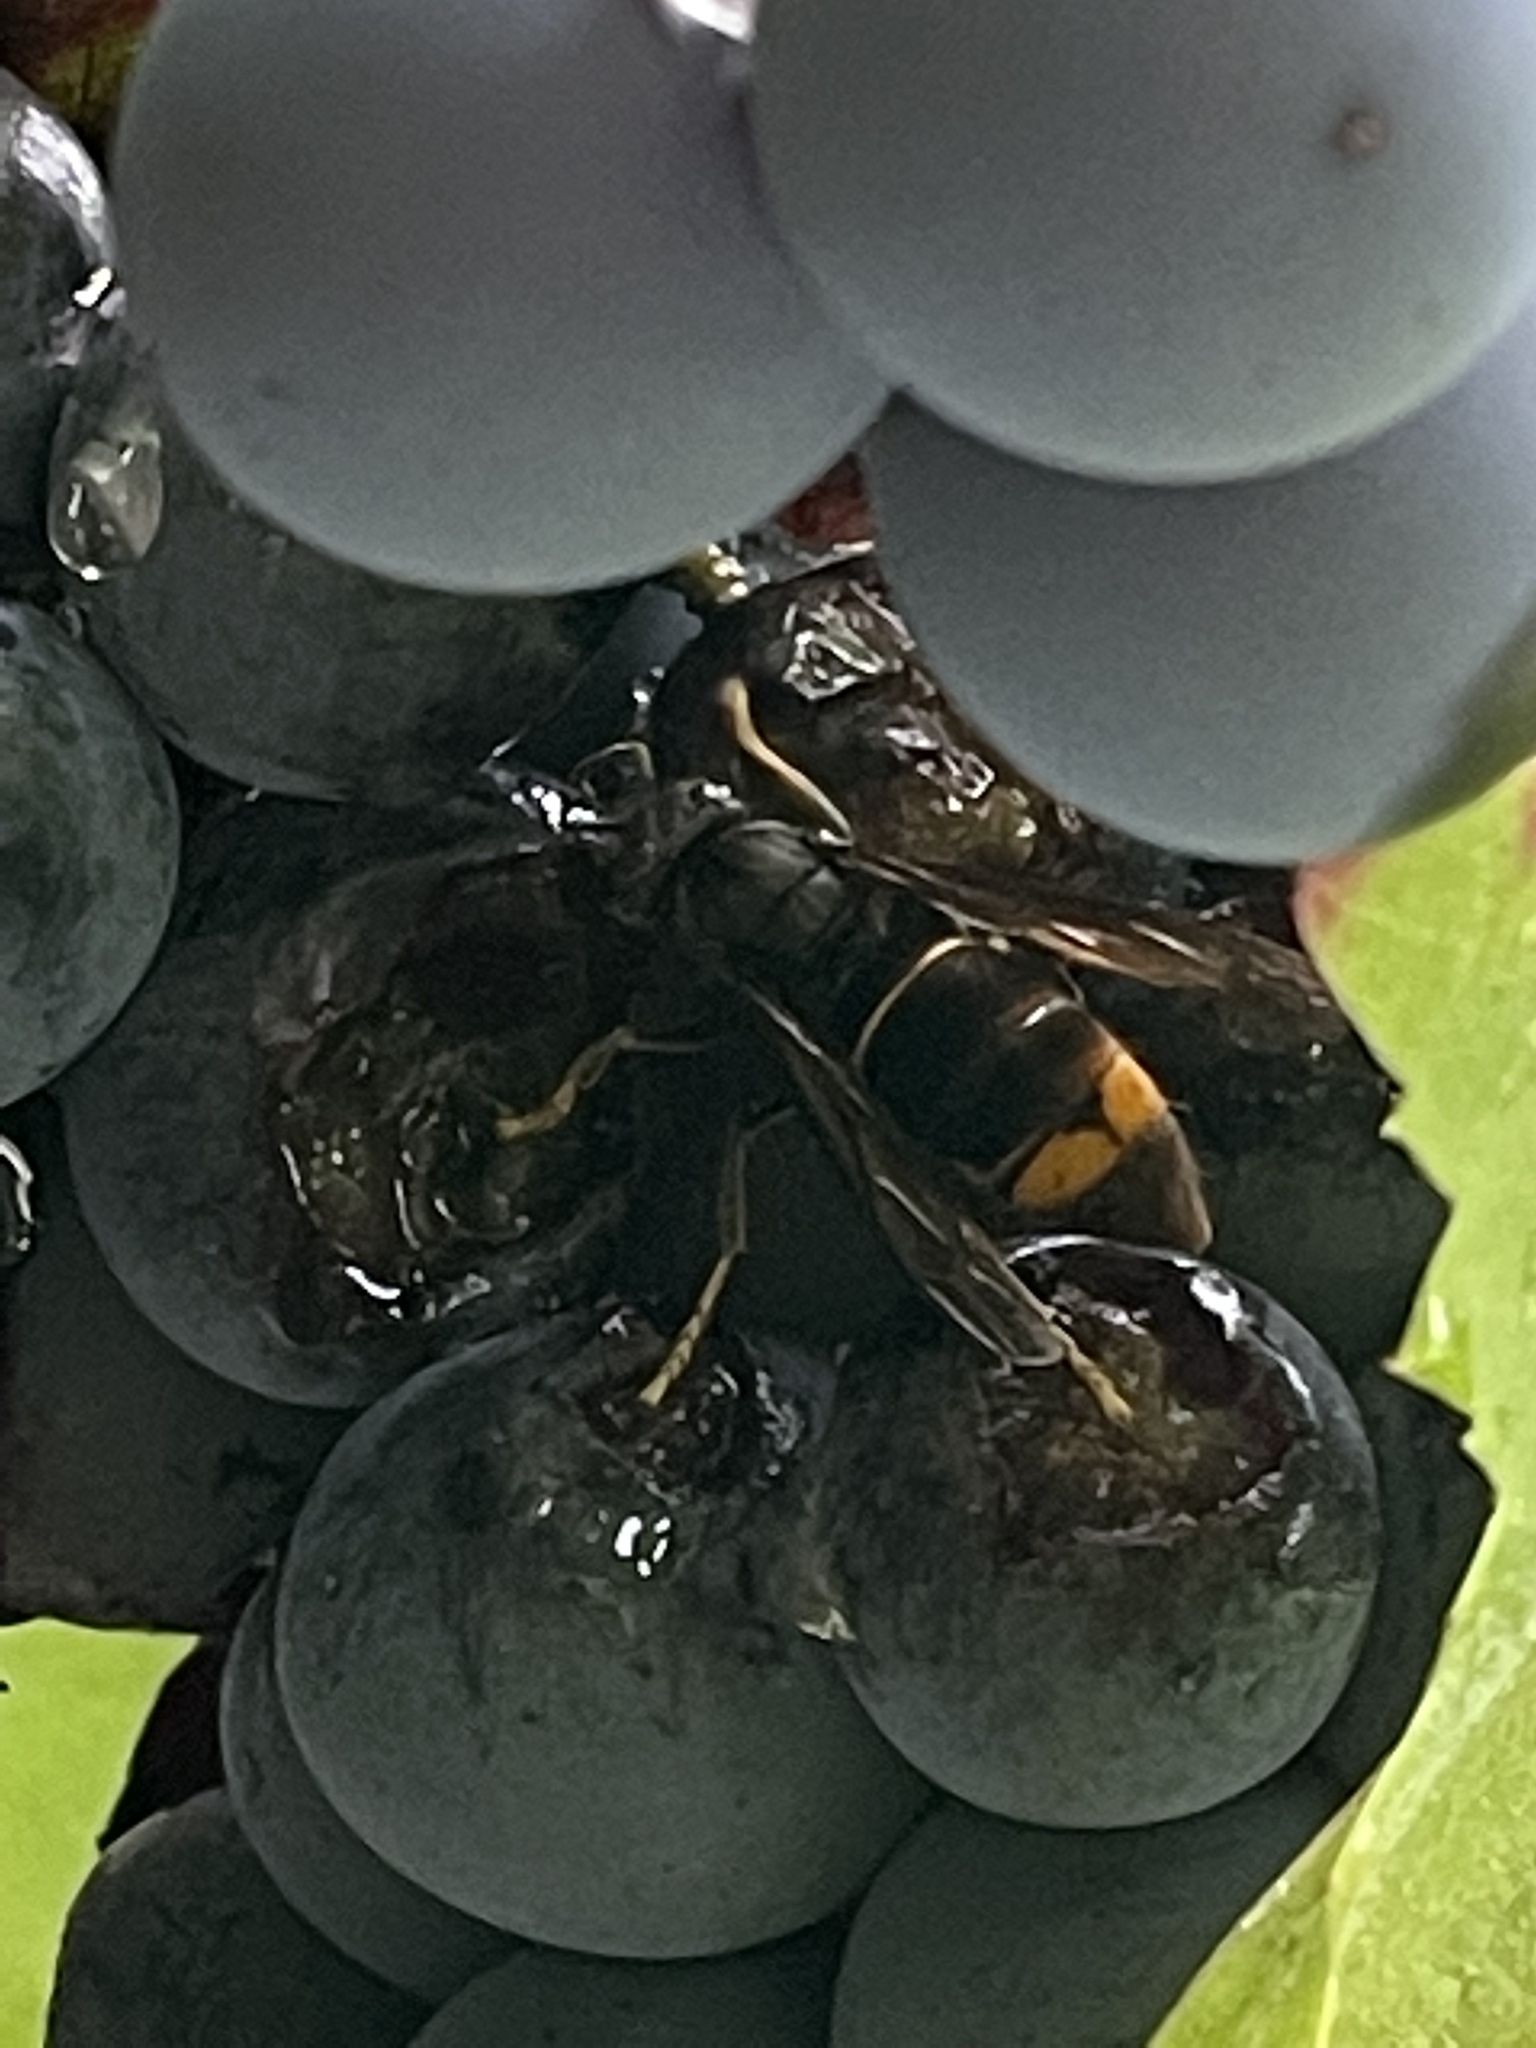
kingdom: Animalia
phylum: Arthropoda
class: Insecta
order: Hymenoptera
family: Vespidae
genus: Vespa
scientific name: Vespa velutina
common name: Asian hornet
